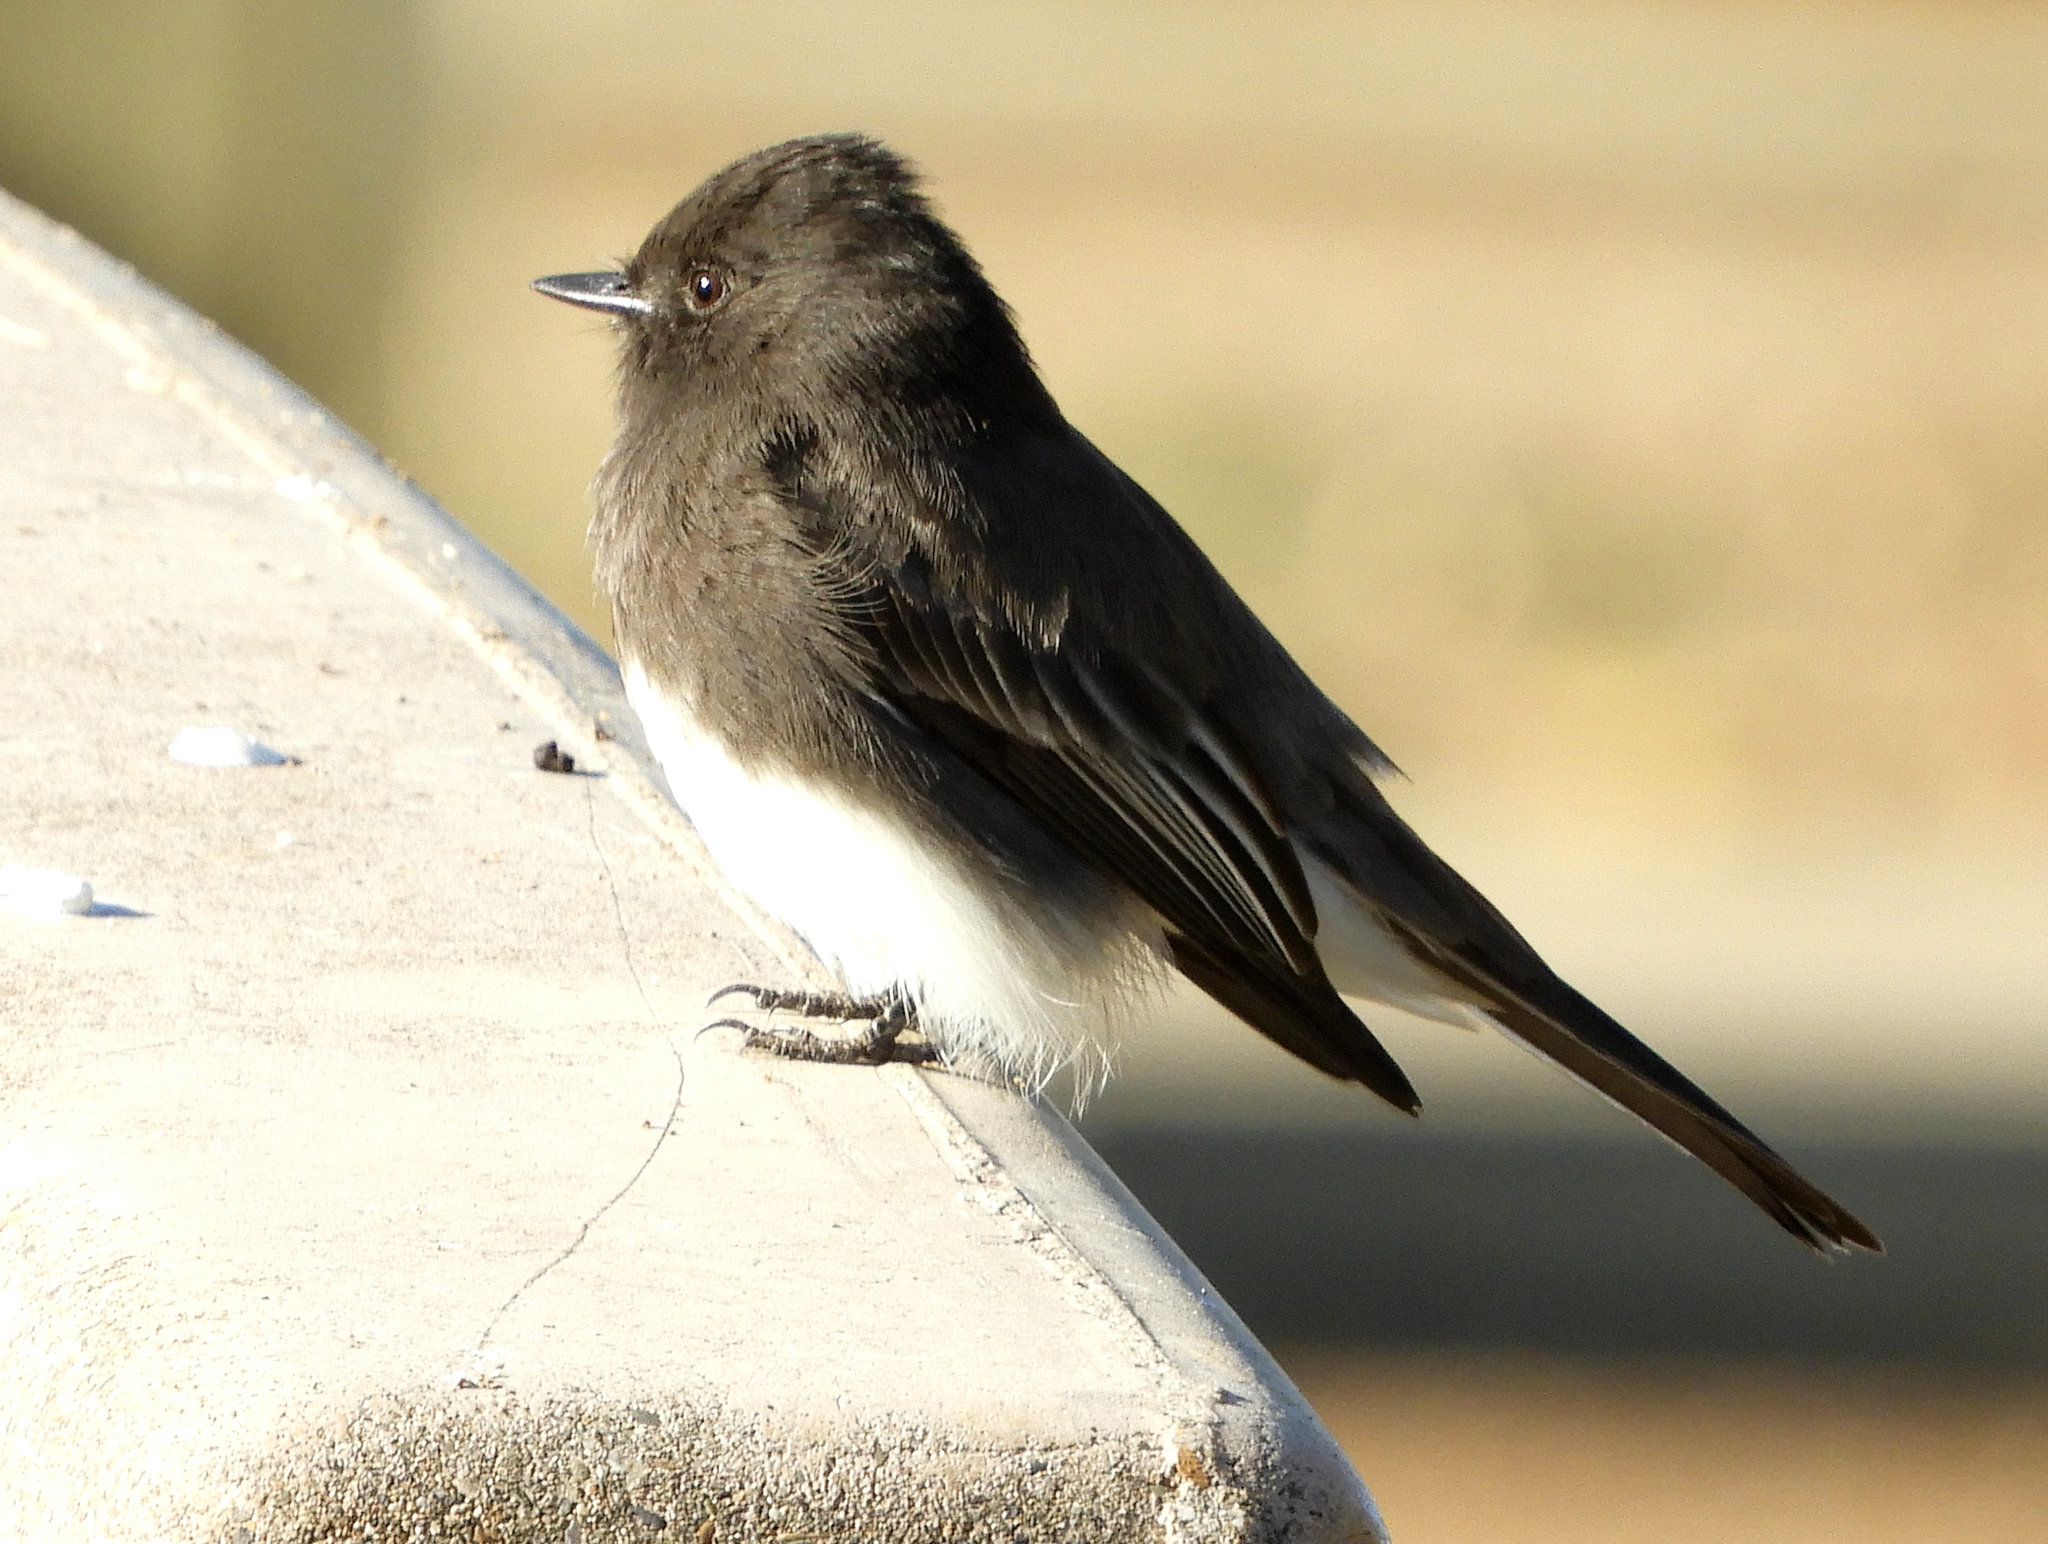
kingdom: Animalia
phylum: Chordata
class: Aves
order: Passeriformes
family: Tyrannidae
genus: Sayornis
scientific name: Sayornis nigricans
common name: Black phoebe
